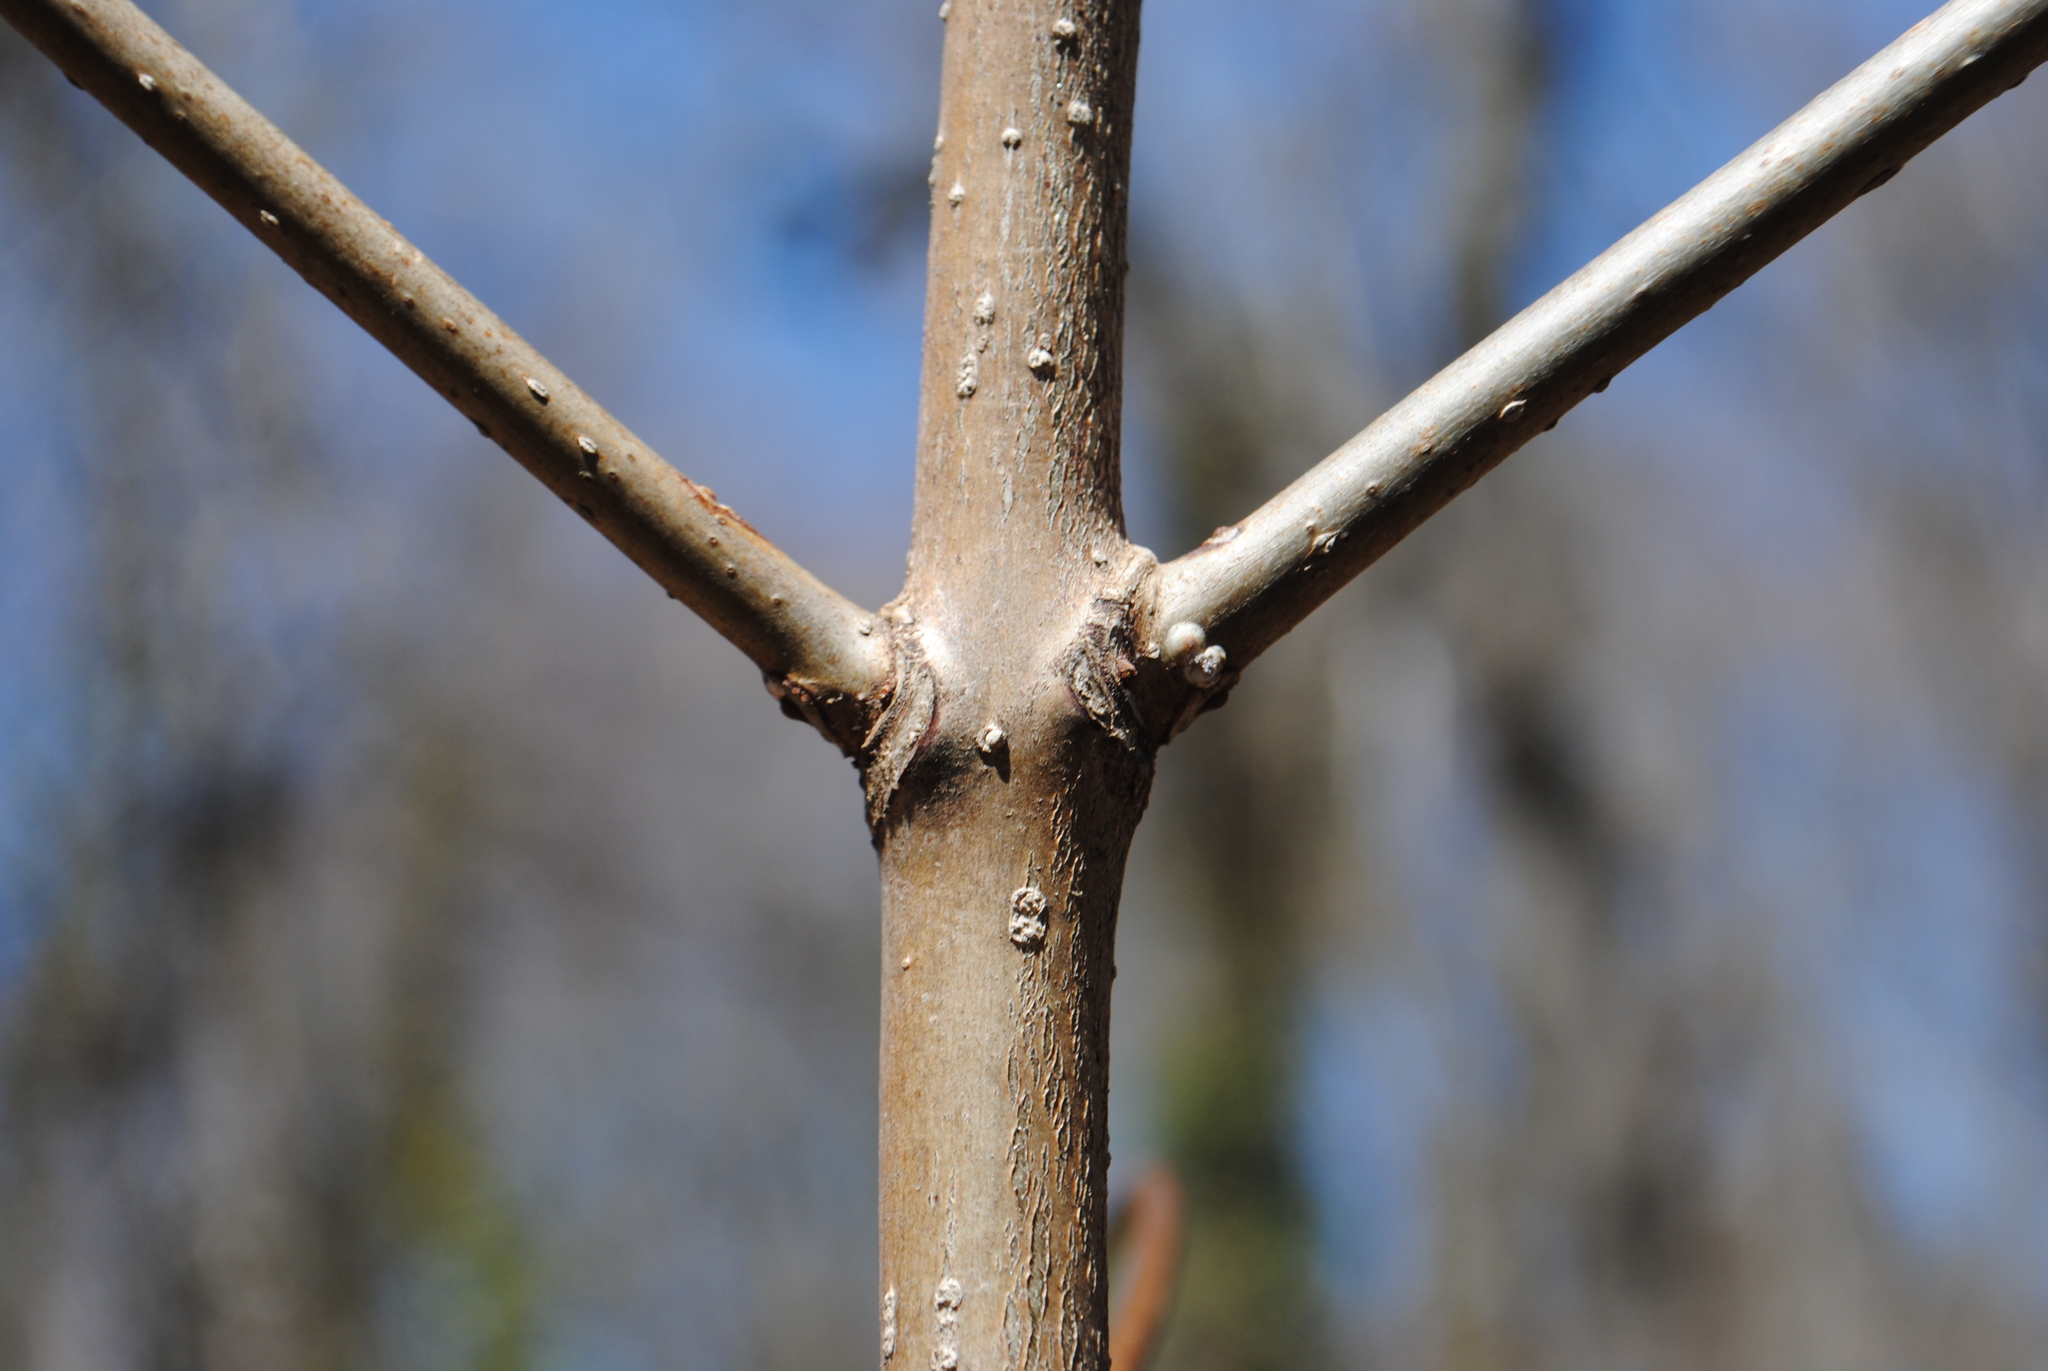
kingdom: Plantae
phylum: Tracheophyta
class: Magnoliopsida
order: Sapindales
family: Rutaceae
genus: Phellodendron
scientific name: Phellodendron amurense
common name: Amur corktree
